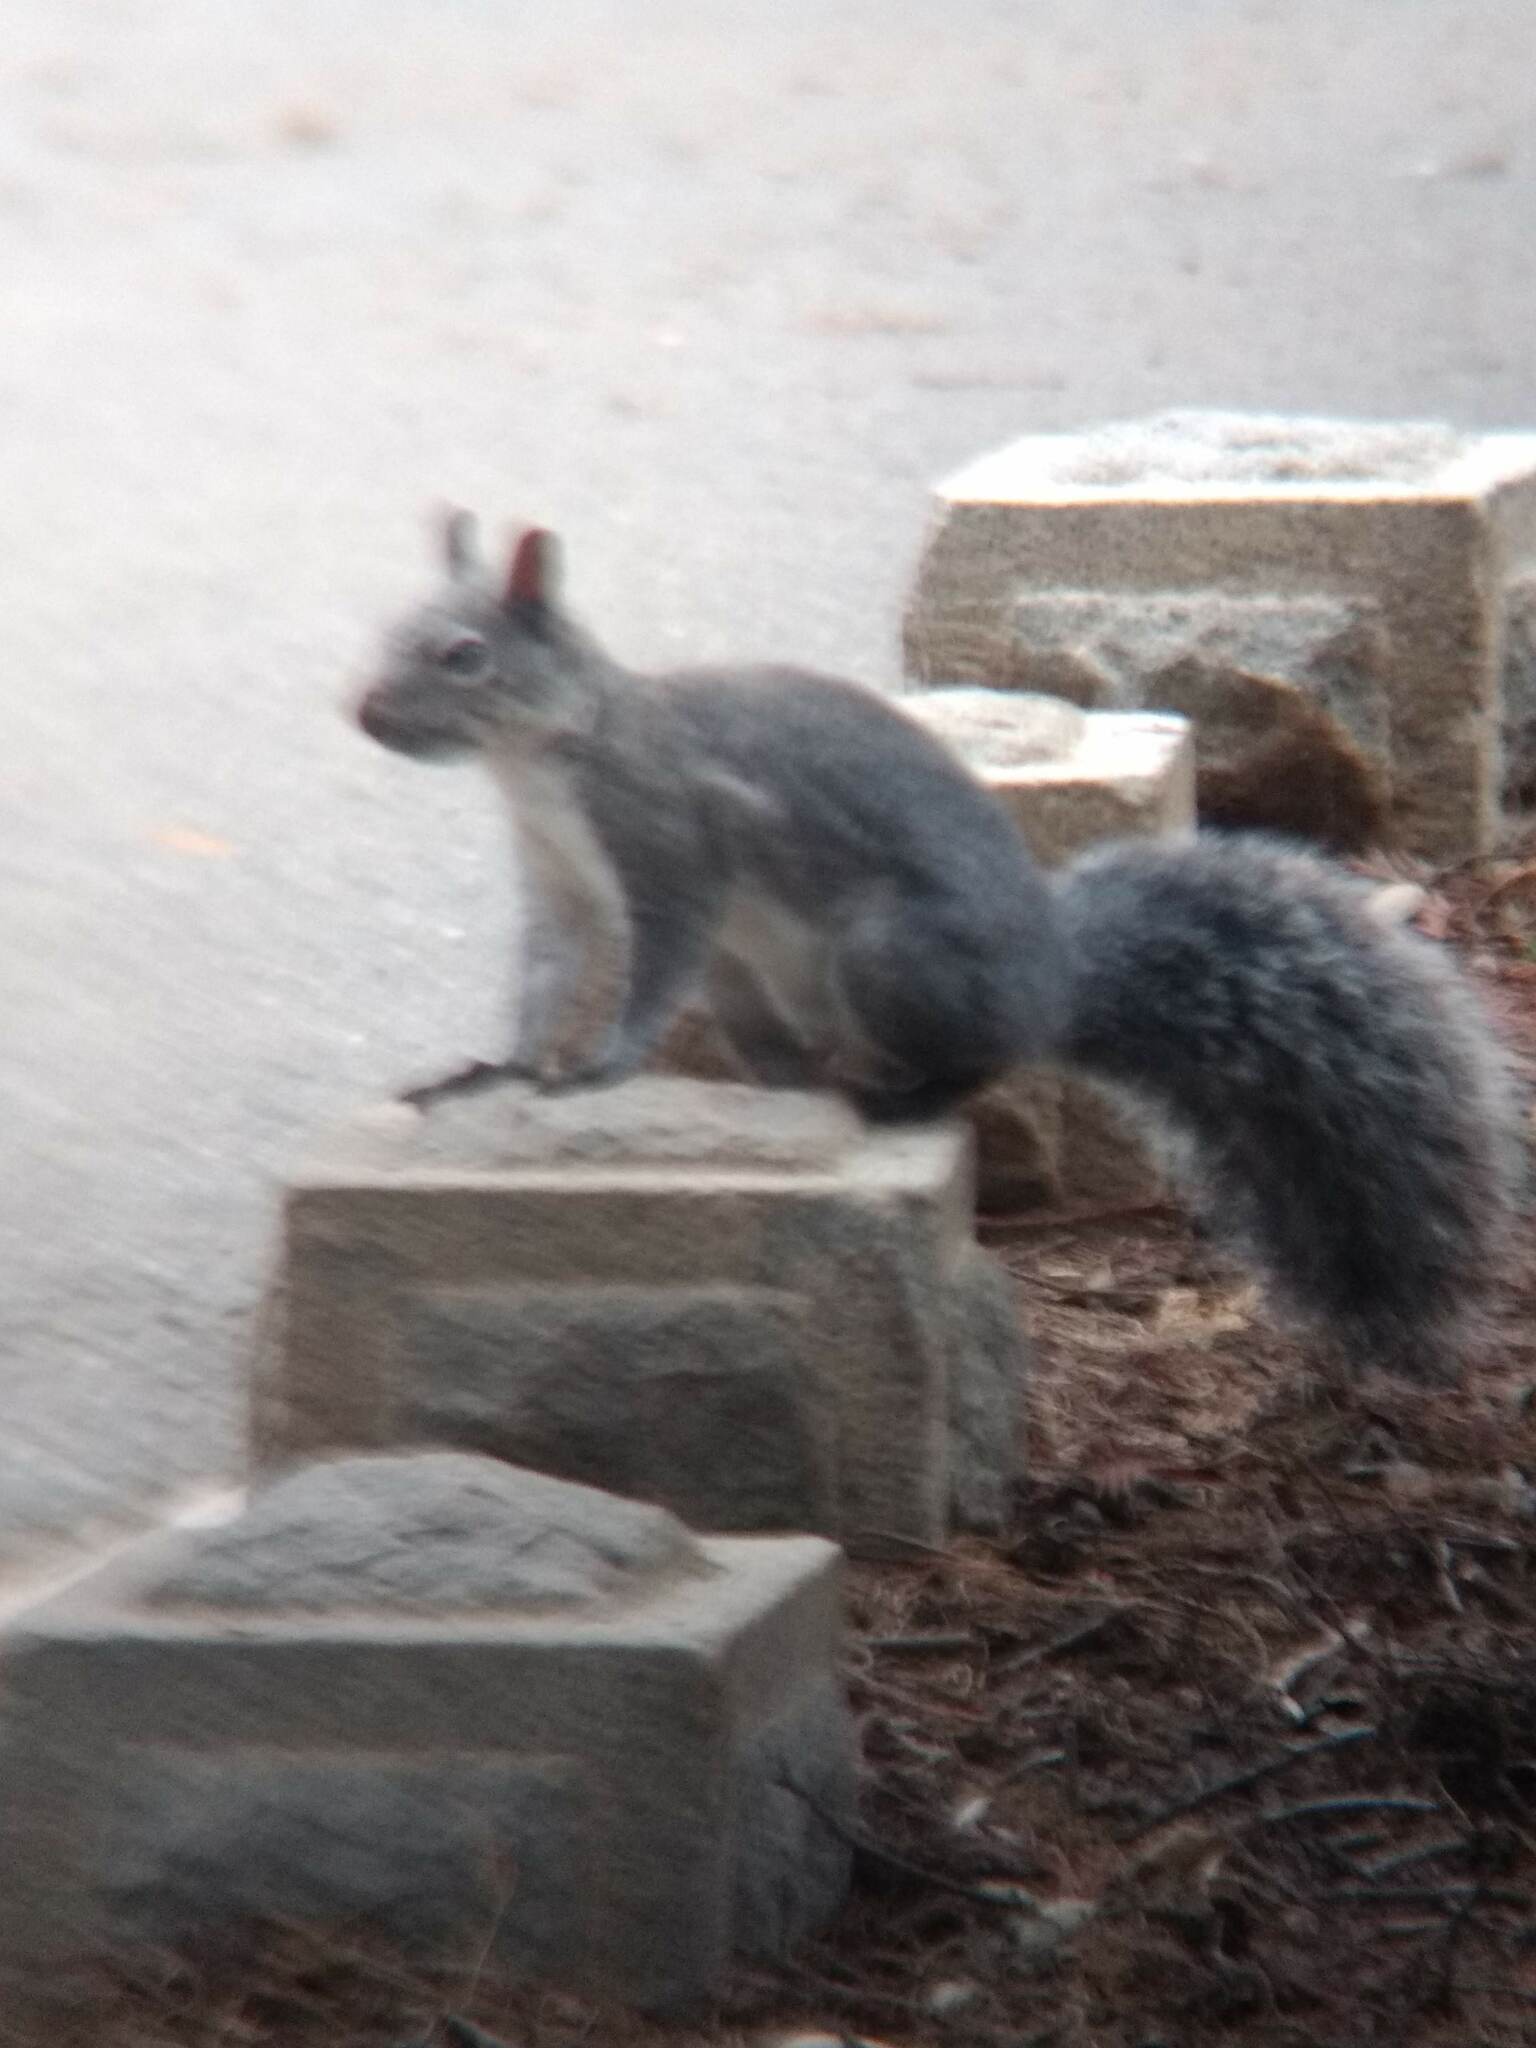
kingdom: Animalia
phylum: Chordata
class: Mammalia
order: Rodentia
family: Sciuridae
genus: Sciurus
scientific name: Sciurus griseus
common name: Western gray squirrel
